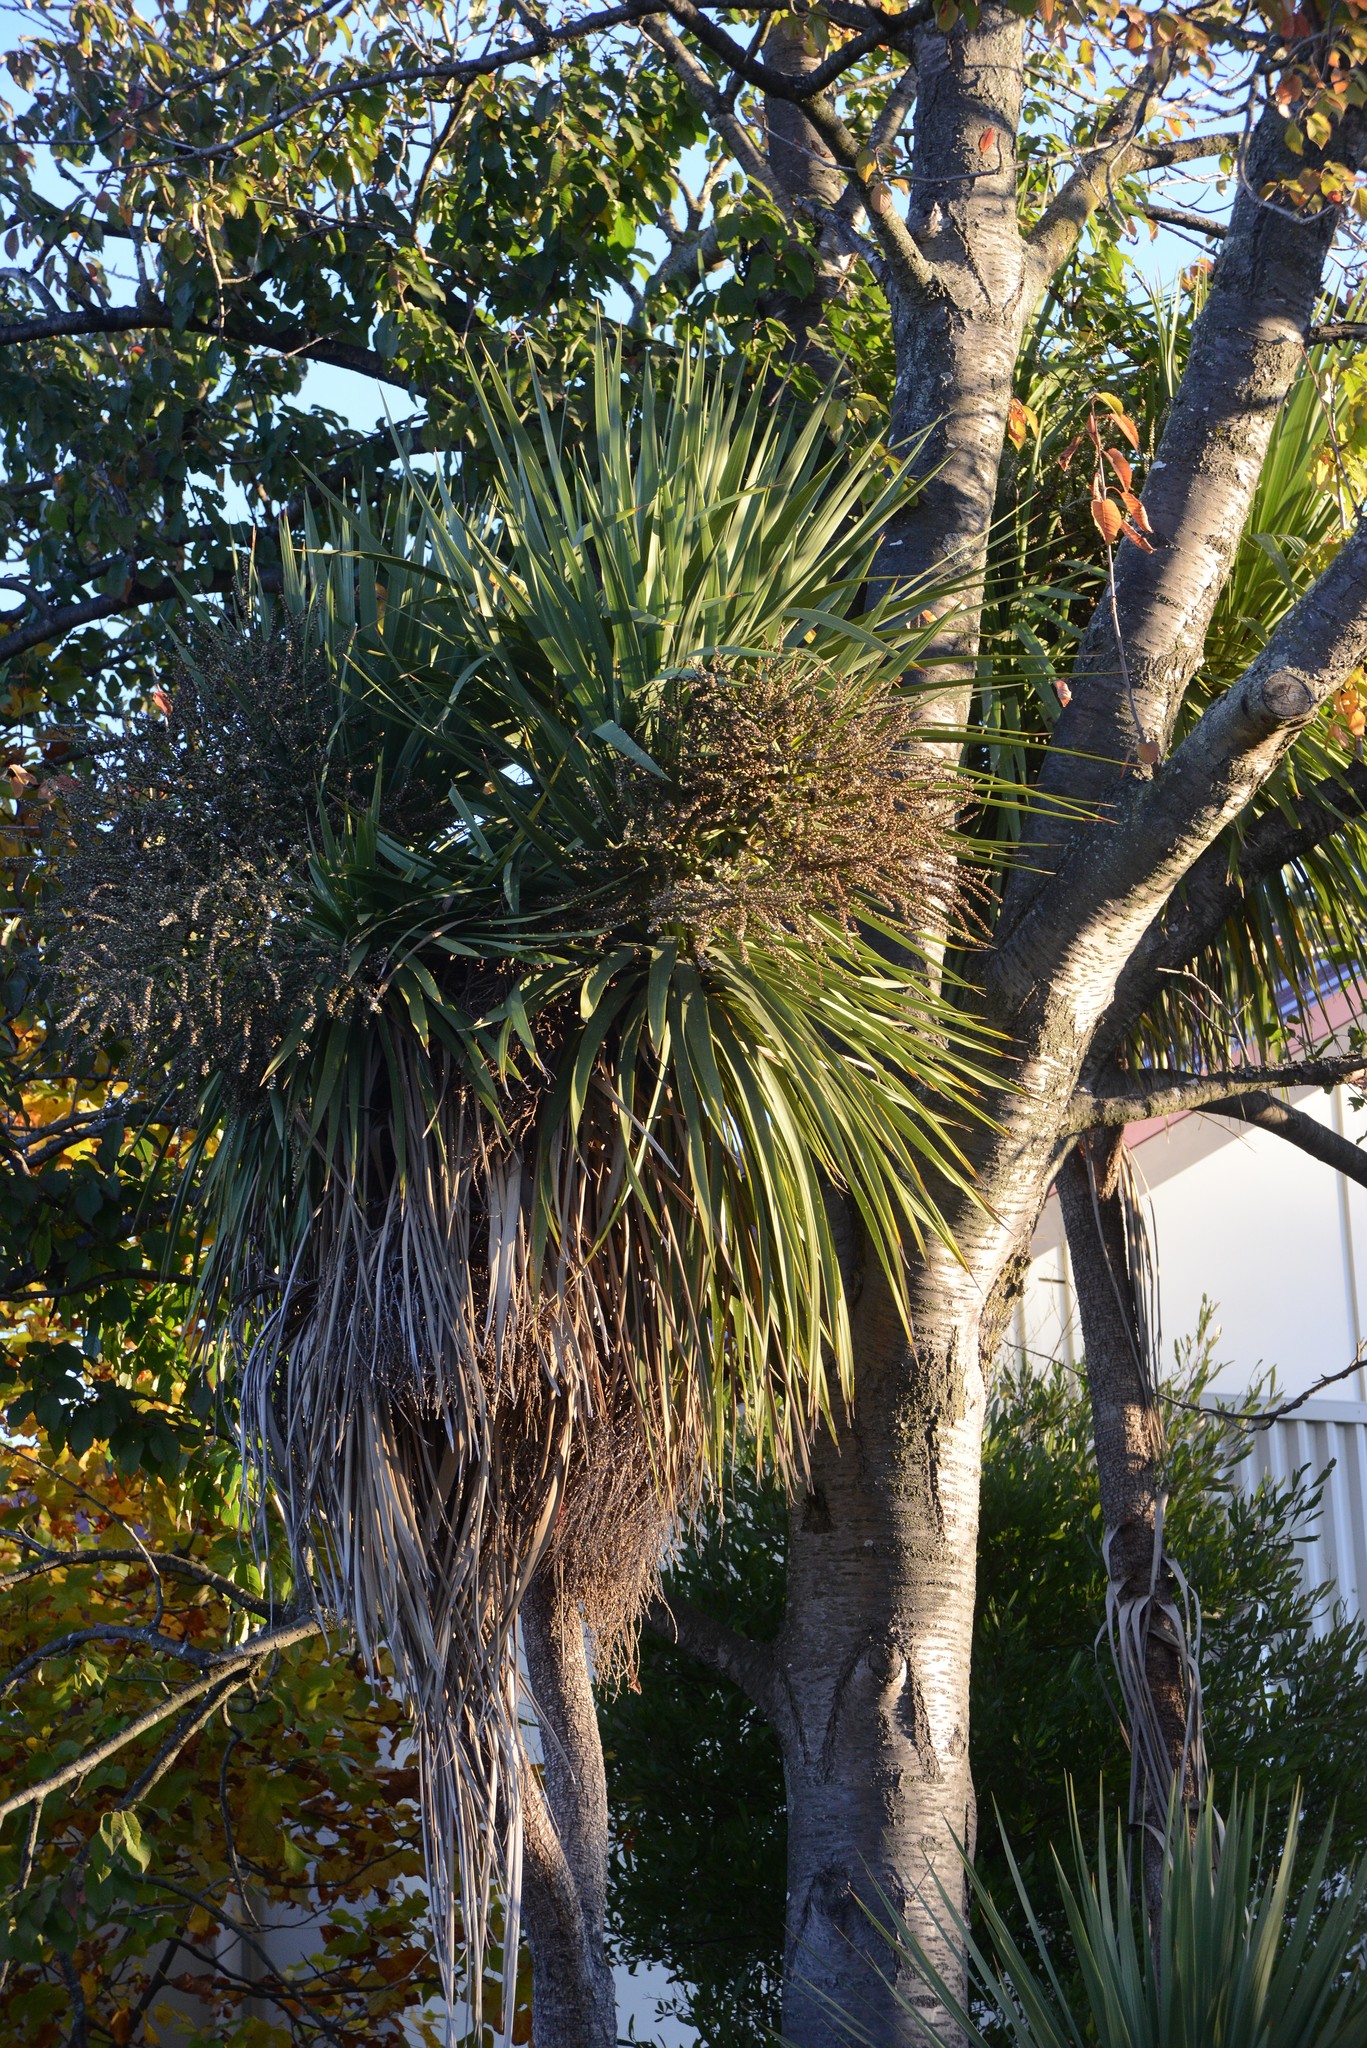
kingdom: Plantae
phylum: Tracheophyta
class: Liliopsida
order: Asparagales
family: Asparagaceae
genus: Cordyline
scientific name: Cordyline australis
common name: Cabbage-palm
